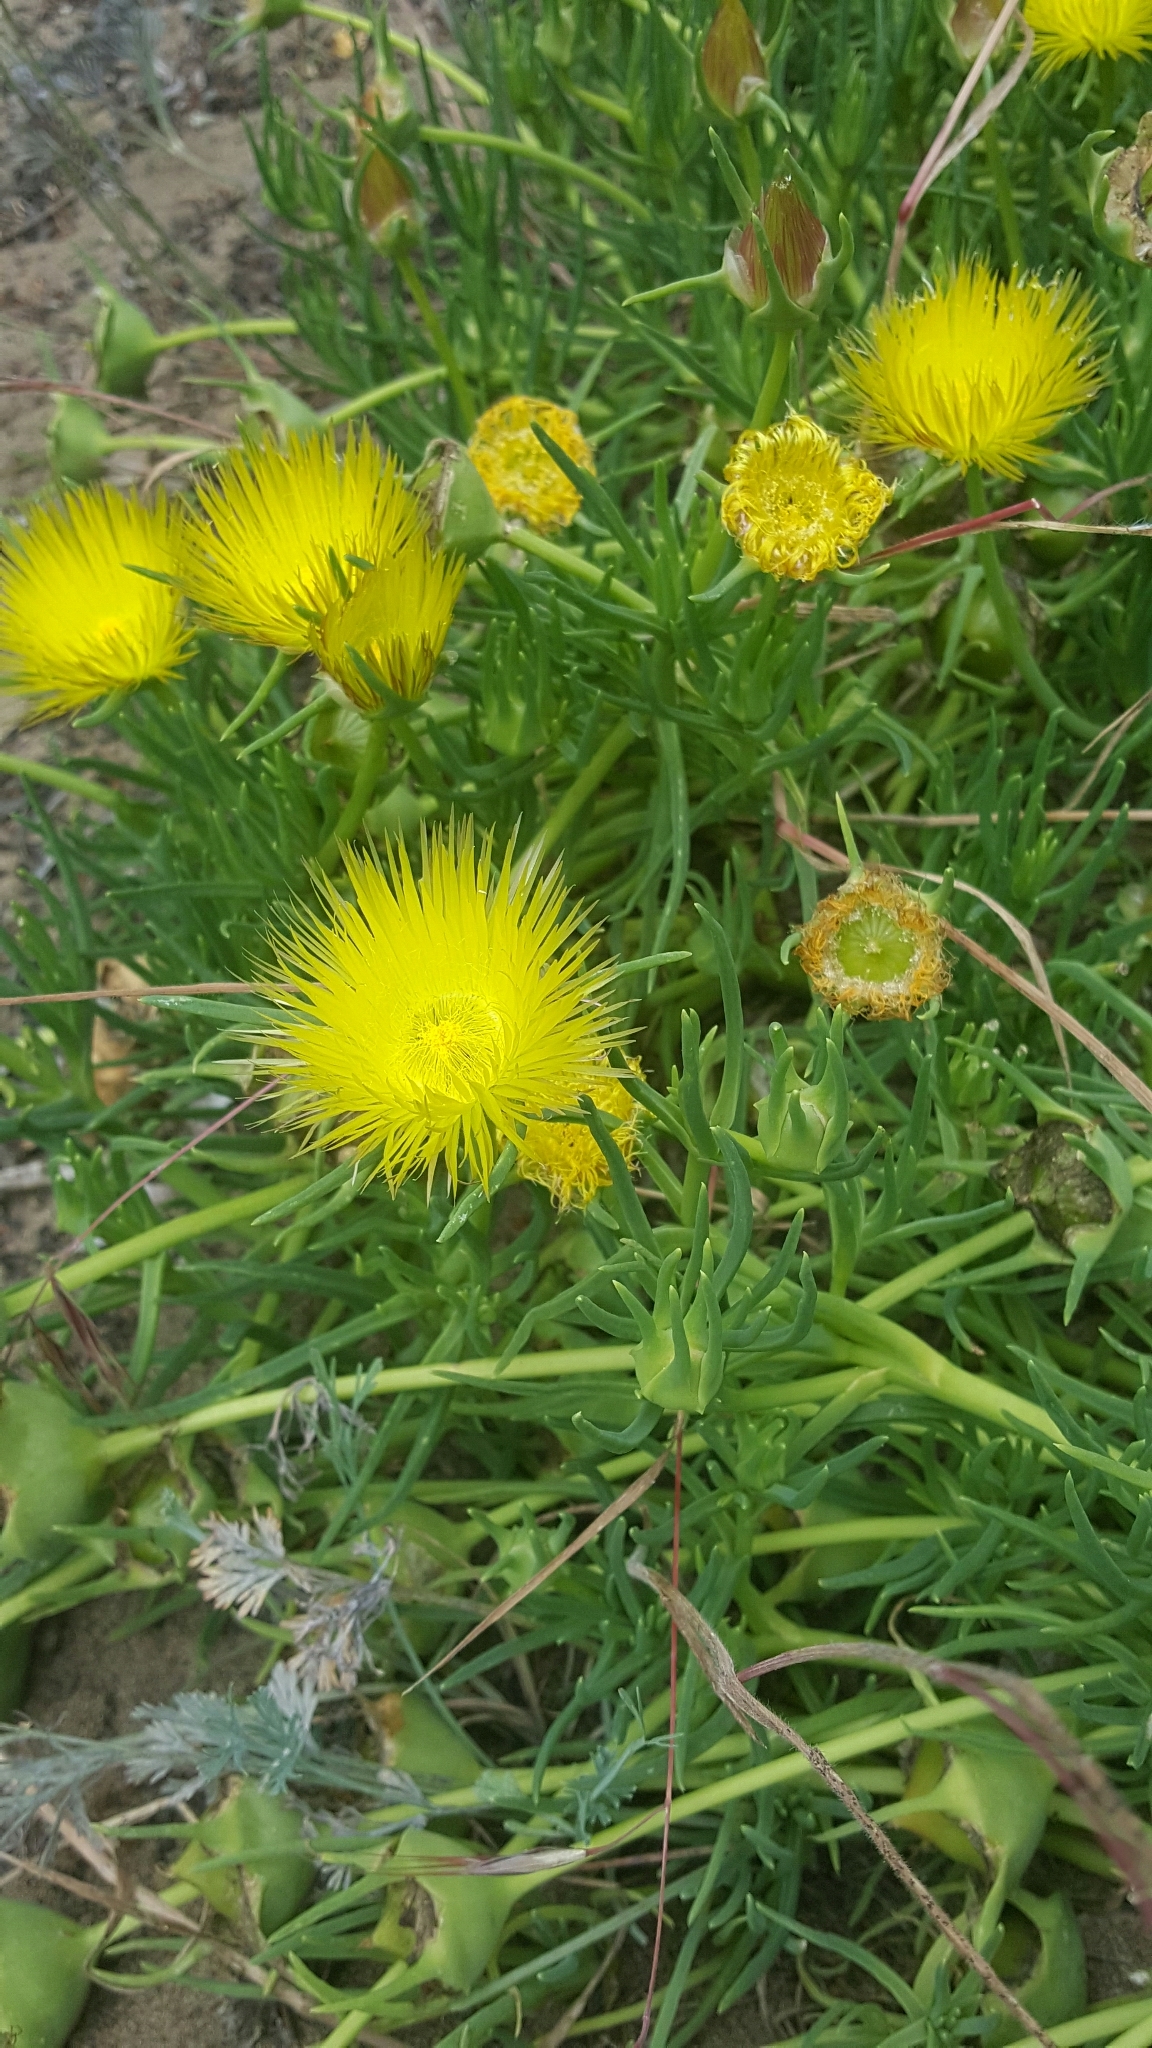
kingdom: Plantae
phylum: Tracheophyta
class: Magnoliopsida
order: Caryophyllales
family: Aizoaceae
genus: Conicosia
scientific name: Conicosia pugioniformis
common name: Narrow-leaved iceplant
